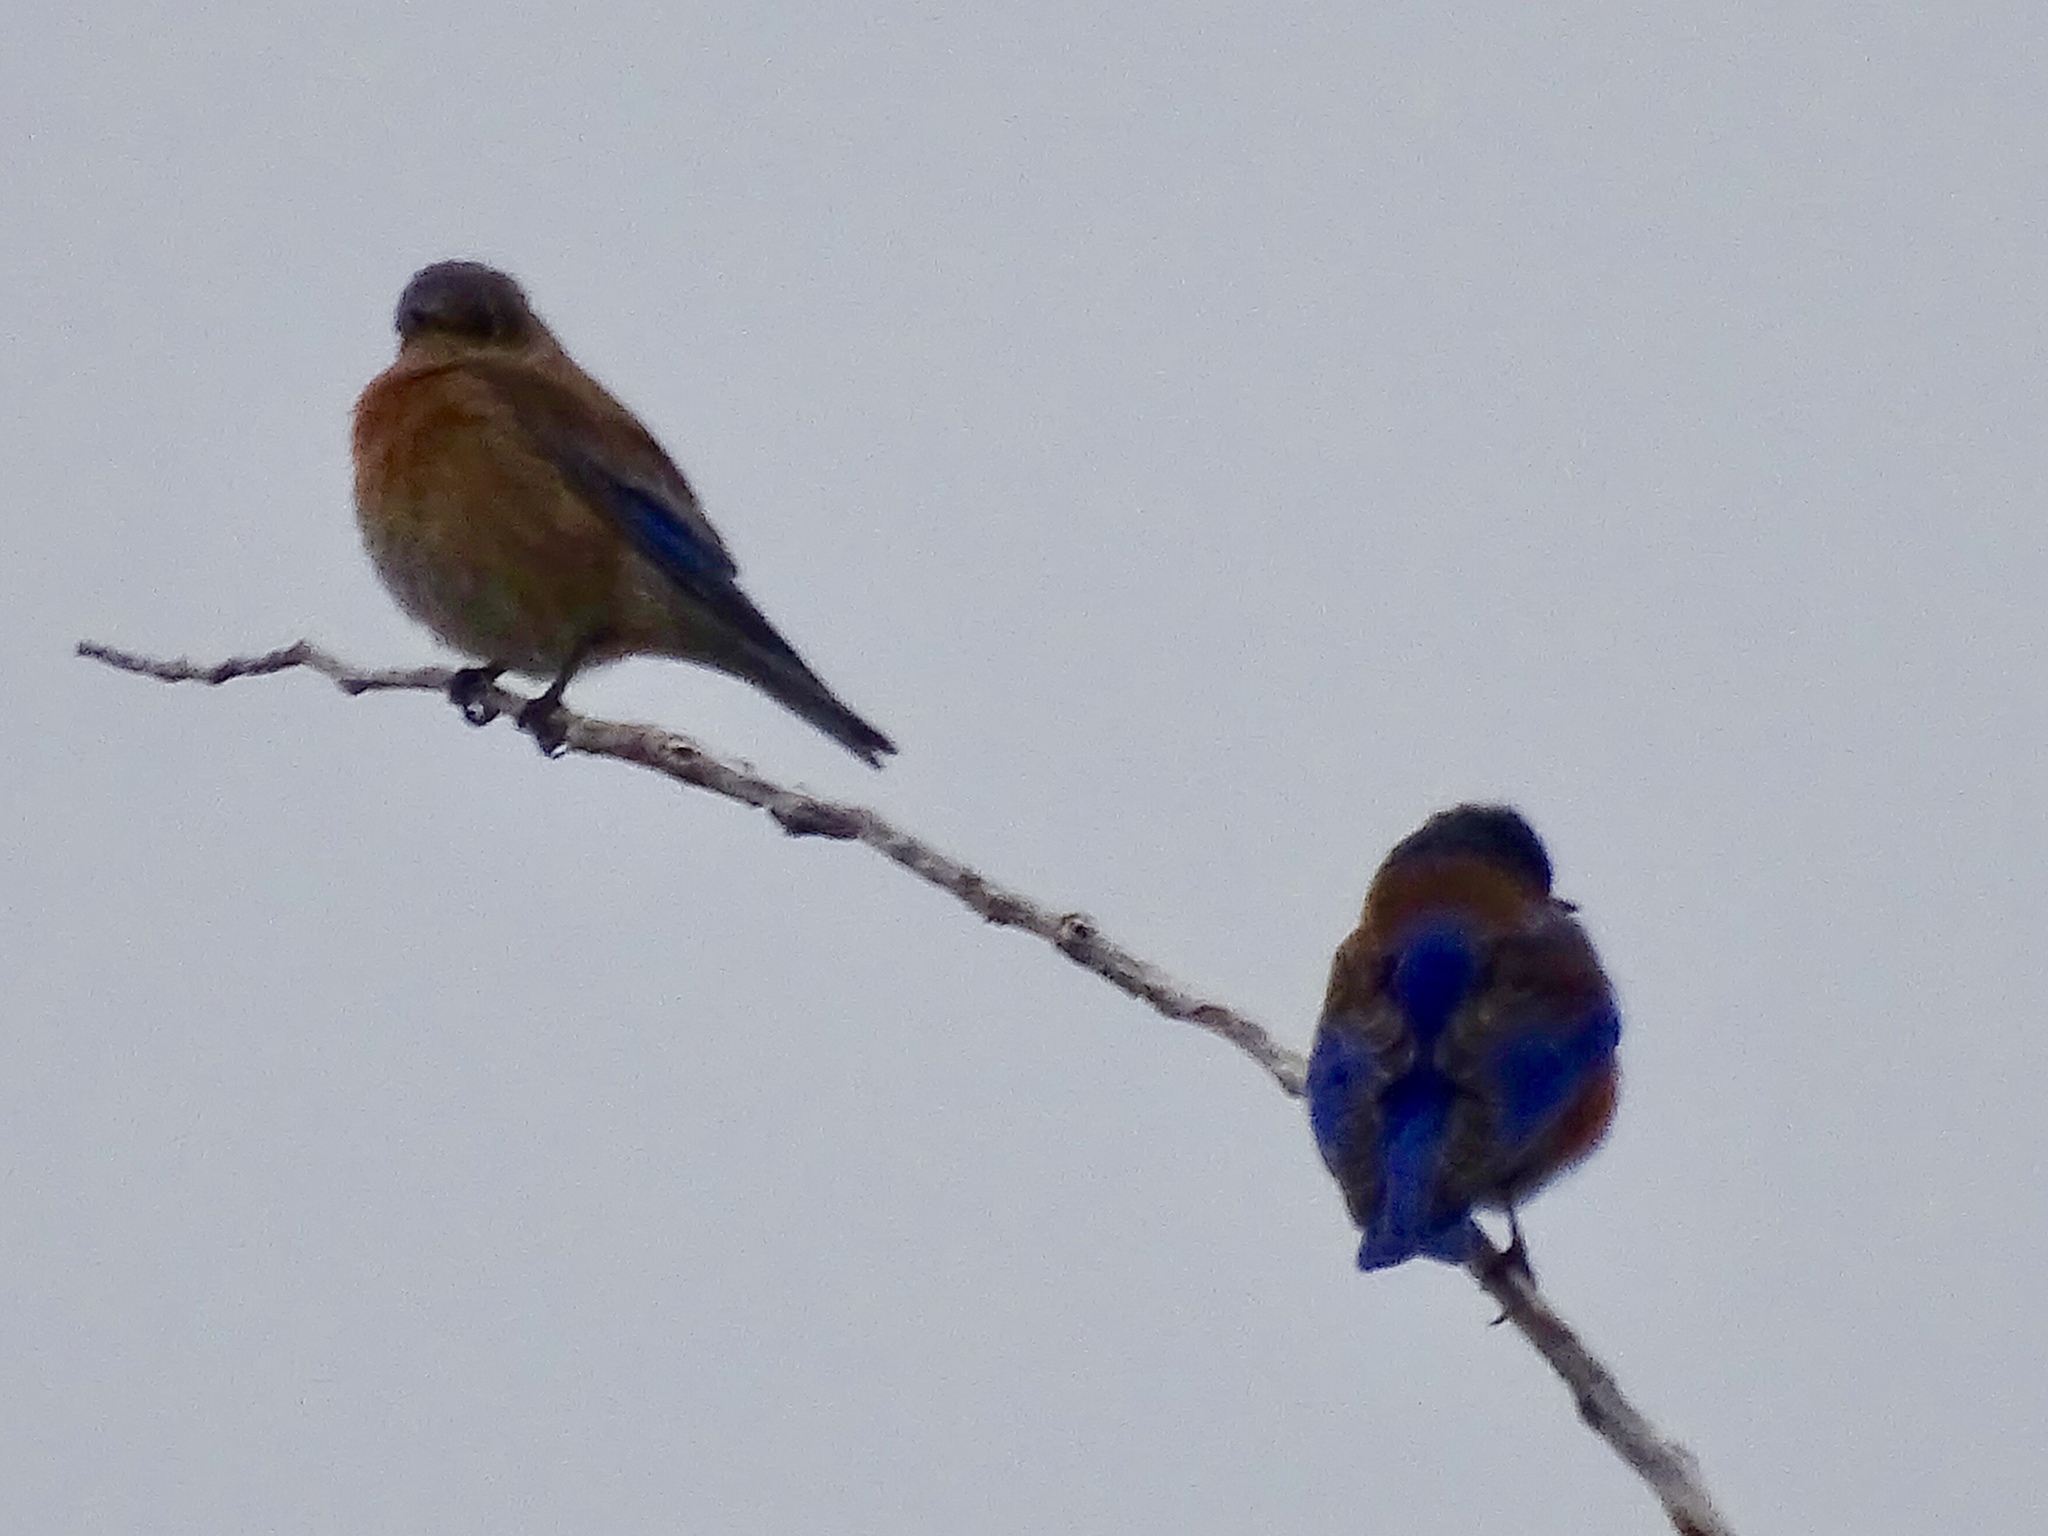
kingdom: Animalia
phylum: Chordata
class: Aves
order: Passeriformes
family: Turdidae
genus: Sialia
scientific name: Sialia mexicana
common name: Western bluebird
